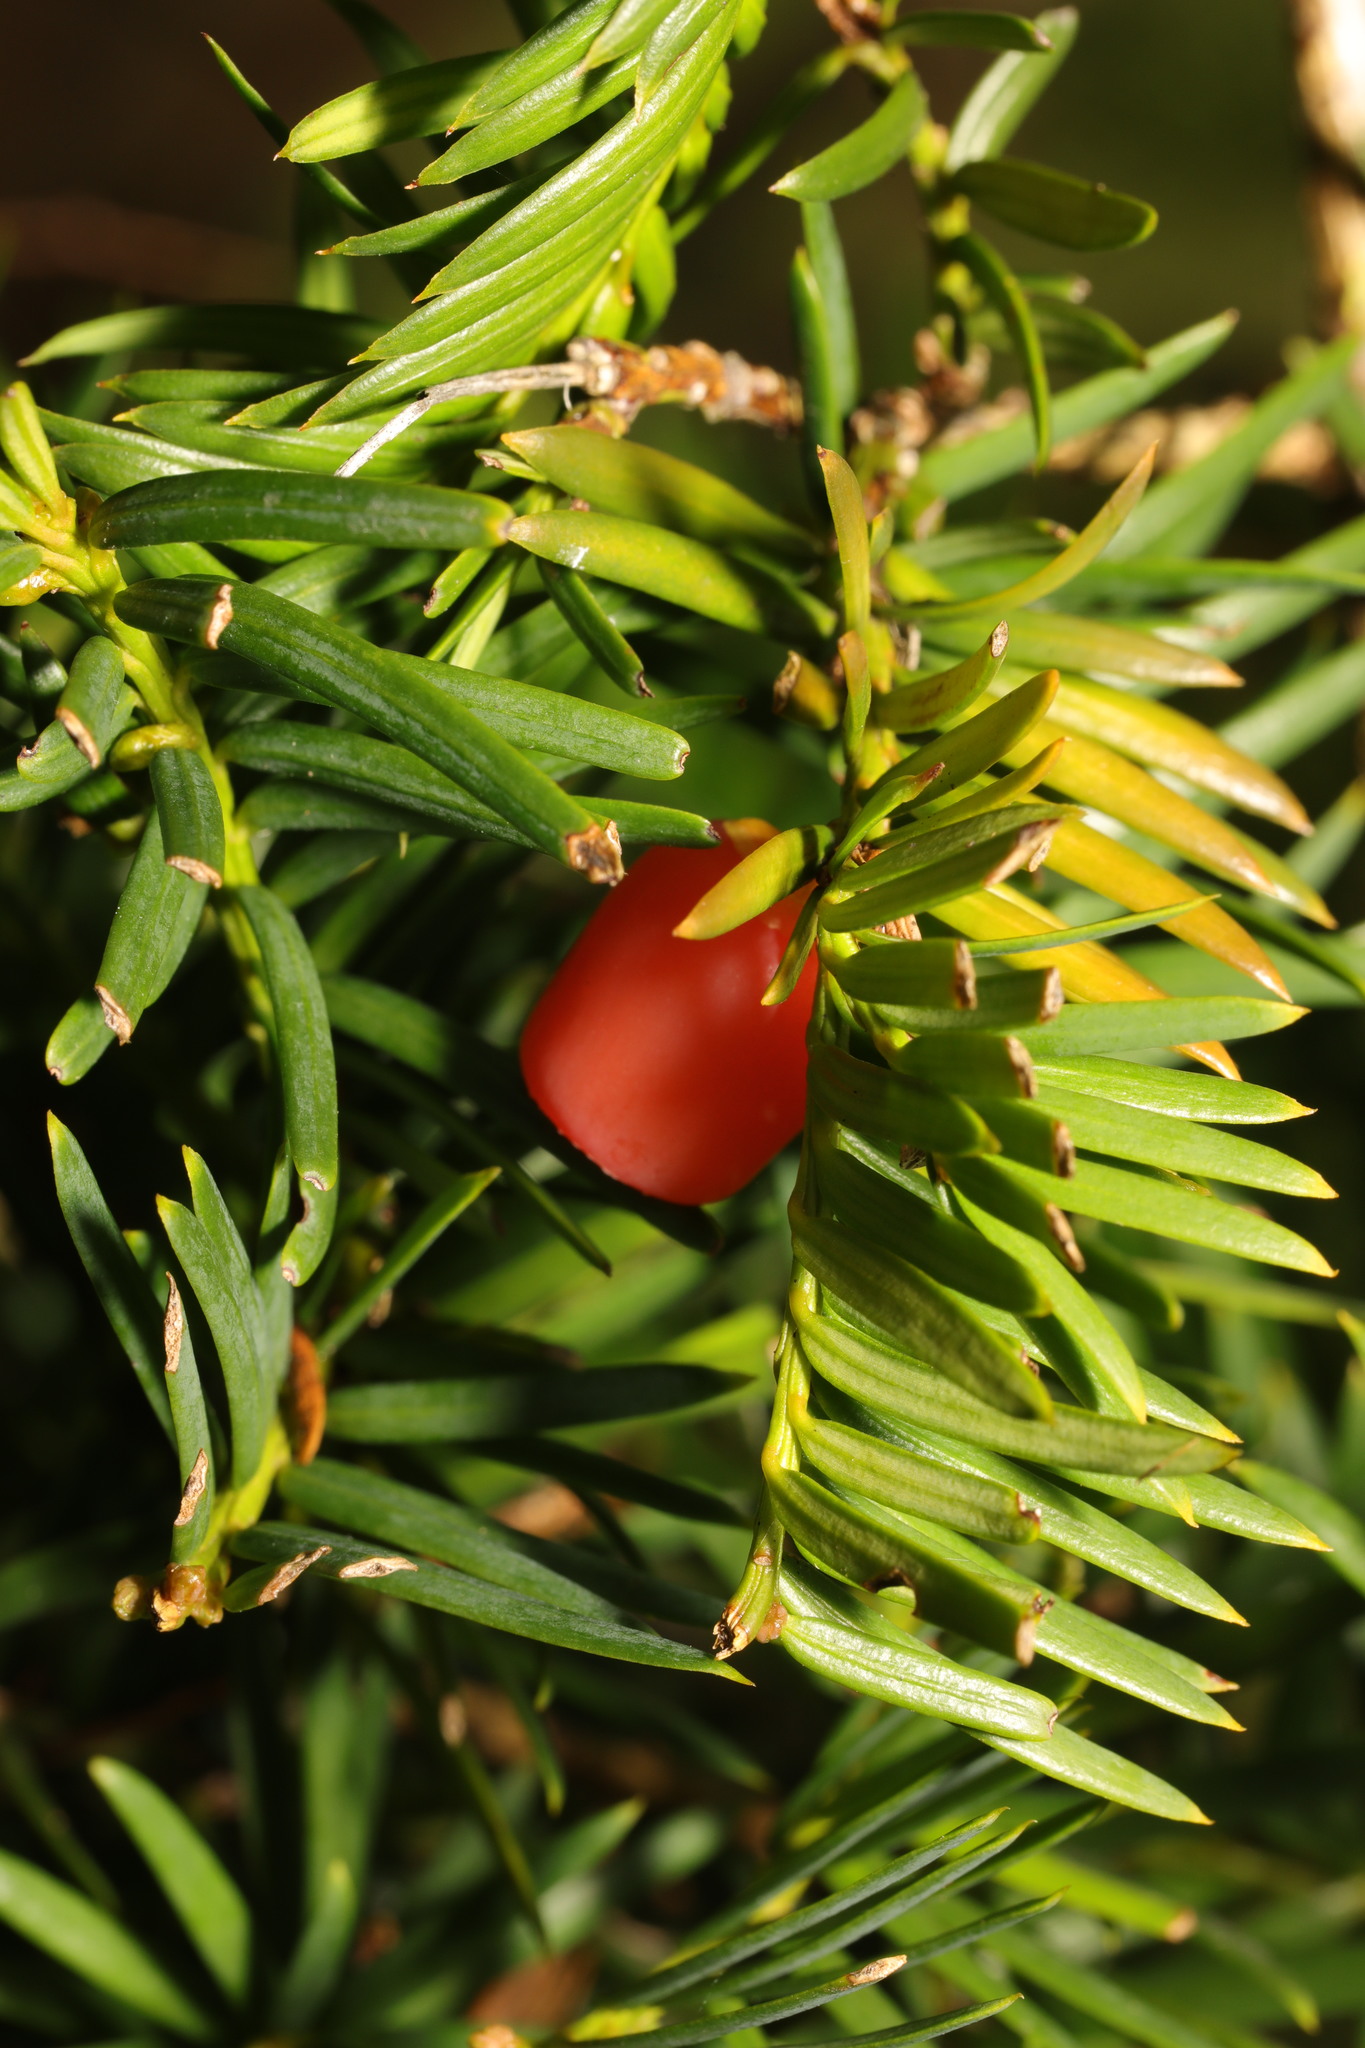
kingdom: Plantae
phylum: Tracheophyta
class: Pinopsida
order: Pinales
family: Taxaceae
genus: Taxus
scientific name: Taxus baccata
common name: Yew
